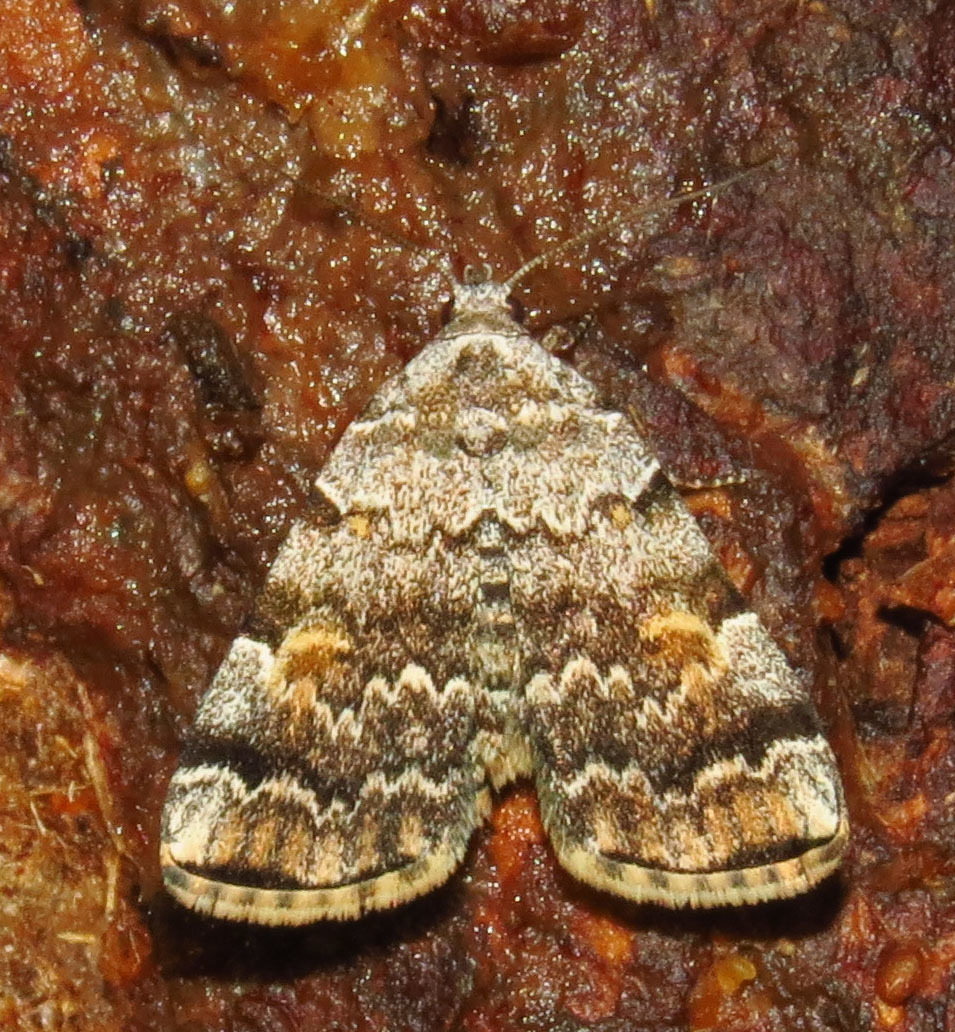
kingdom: Animalia
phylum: Arthropoda
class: Insecta
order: Lepidoptera
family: Erebidae
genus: Idia
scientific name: Idia americalis
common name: American idia moth
